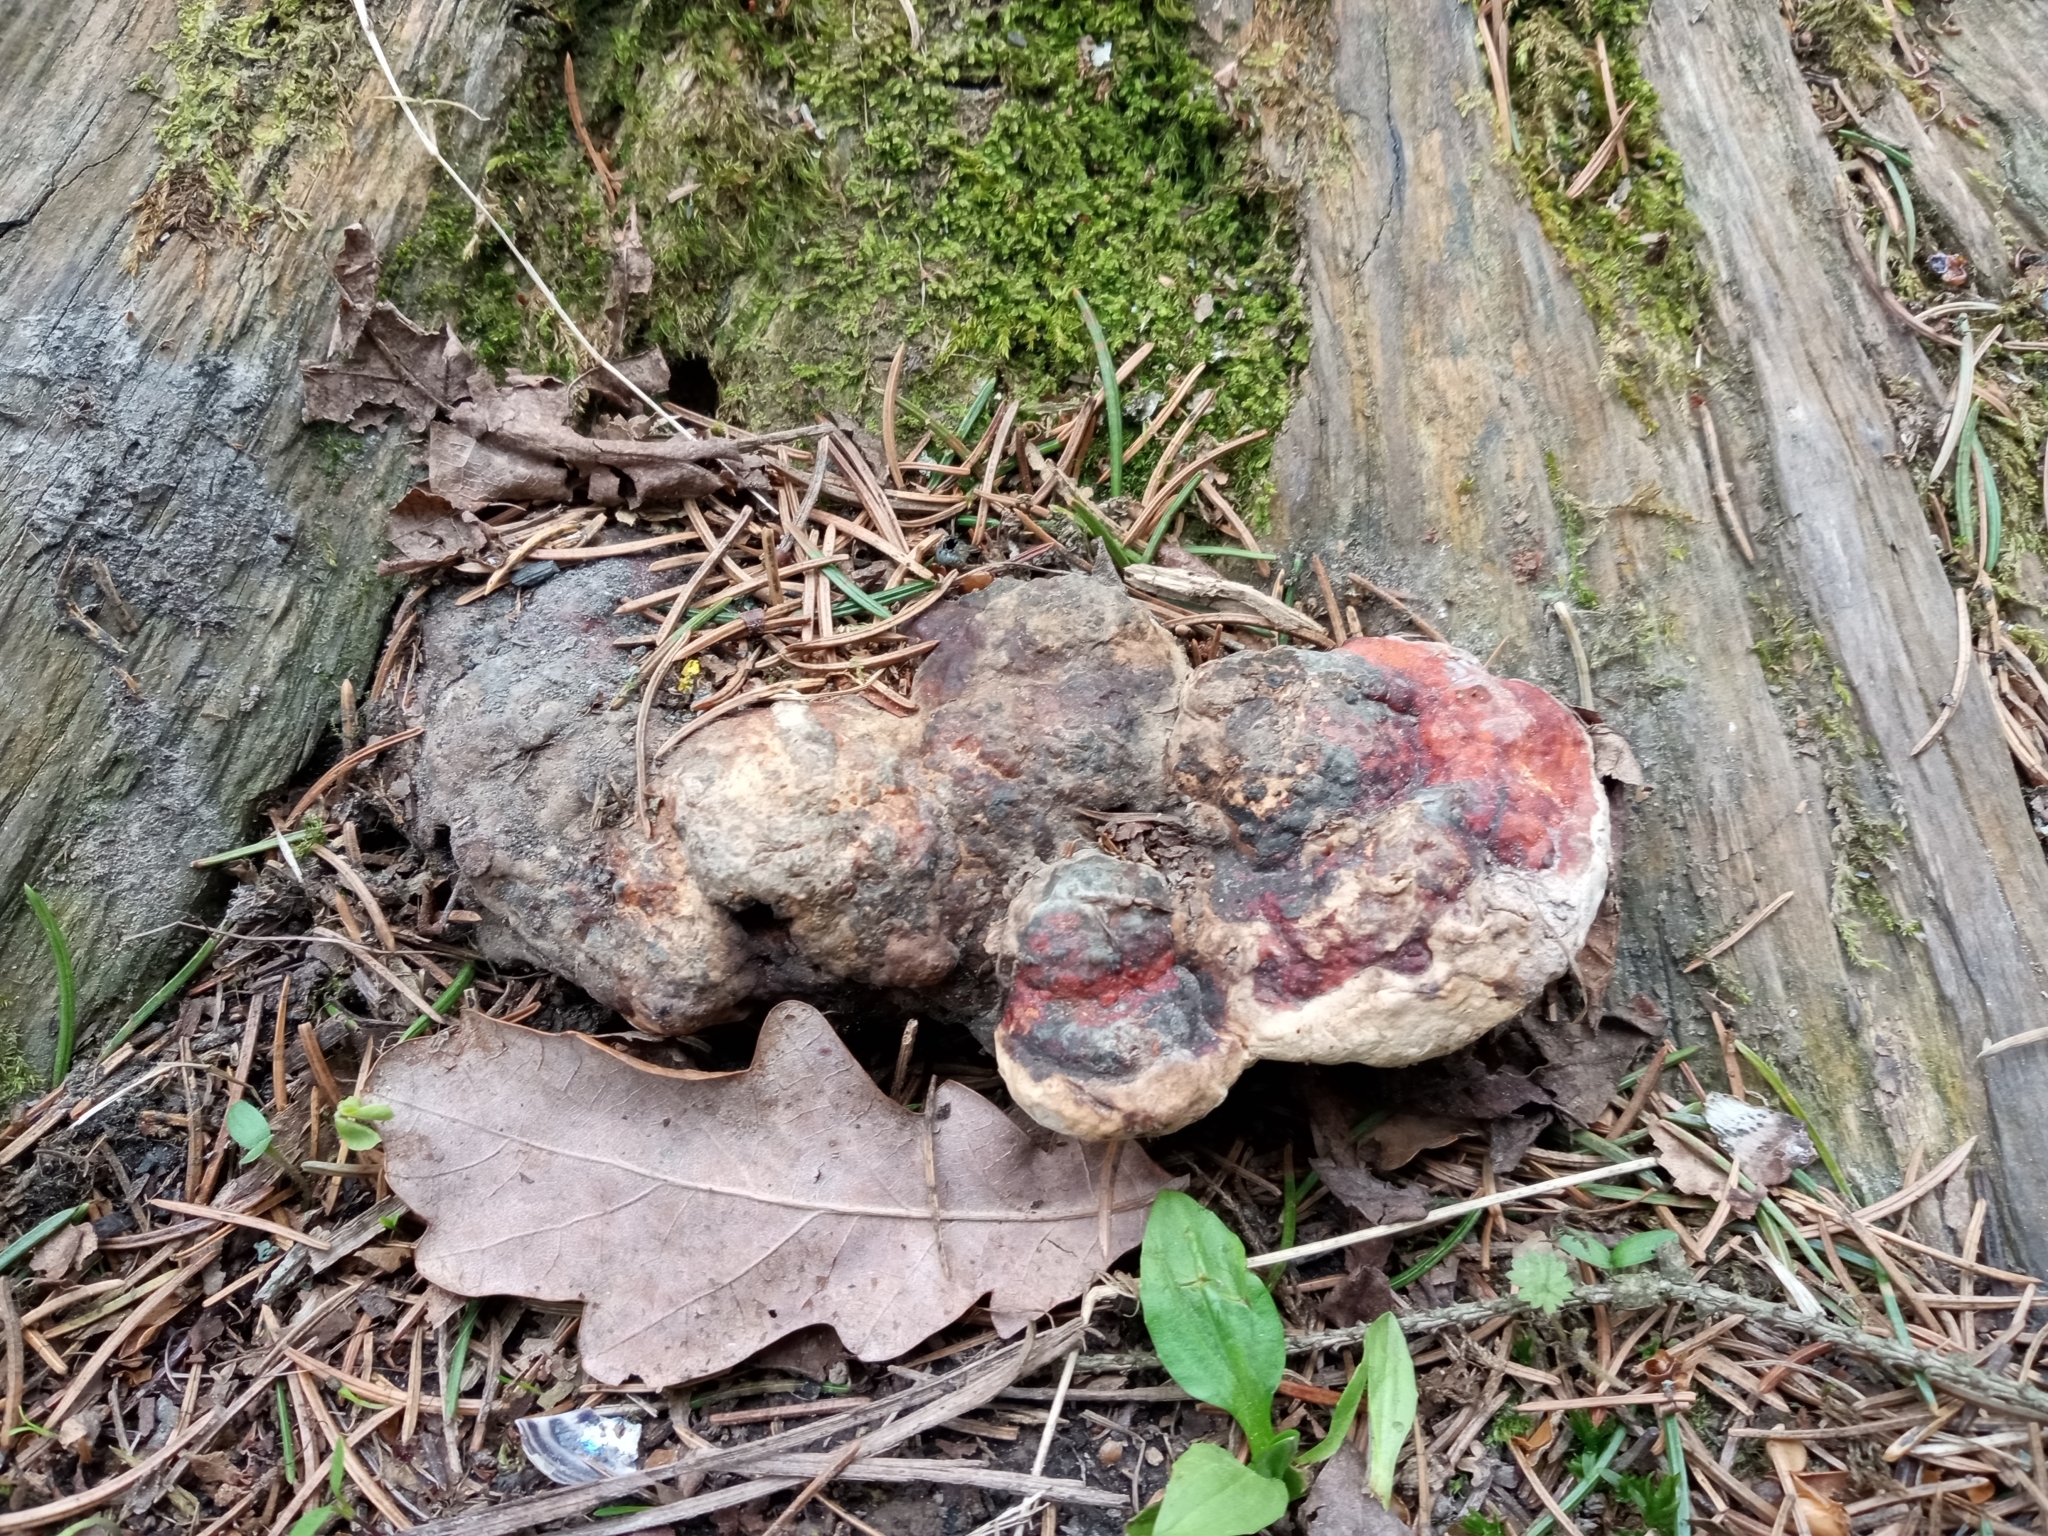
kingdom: Fungi
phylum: Basidiomycota
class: Agaricomycetes
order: Polyporales
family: Fomitopsidaceae
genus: Fomitopsis
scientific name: Fomitopsis pinicola
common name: Red-belted bracket
